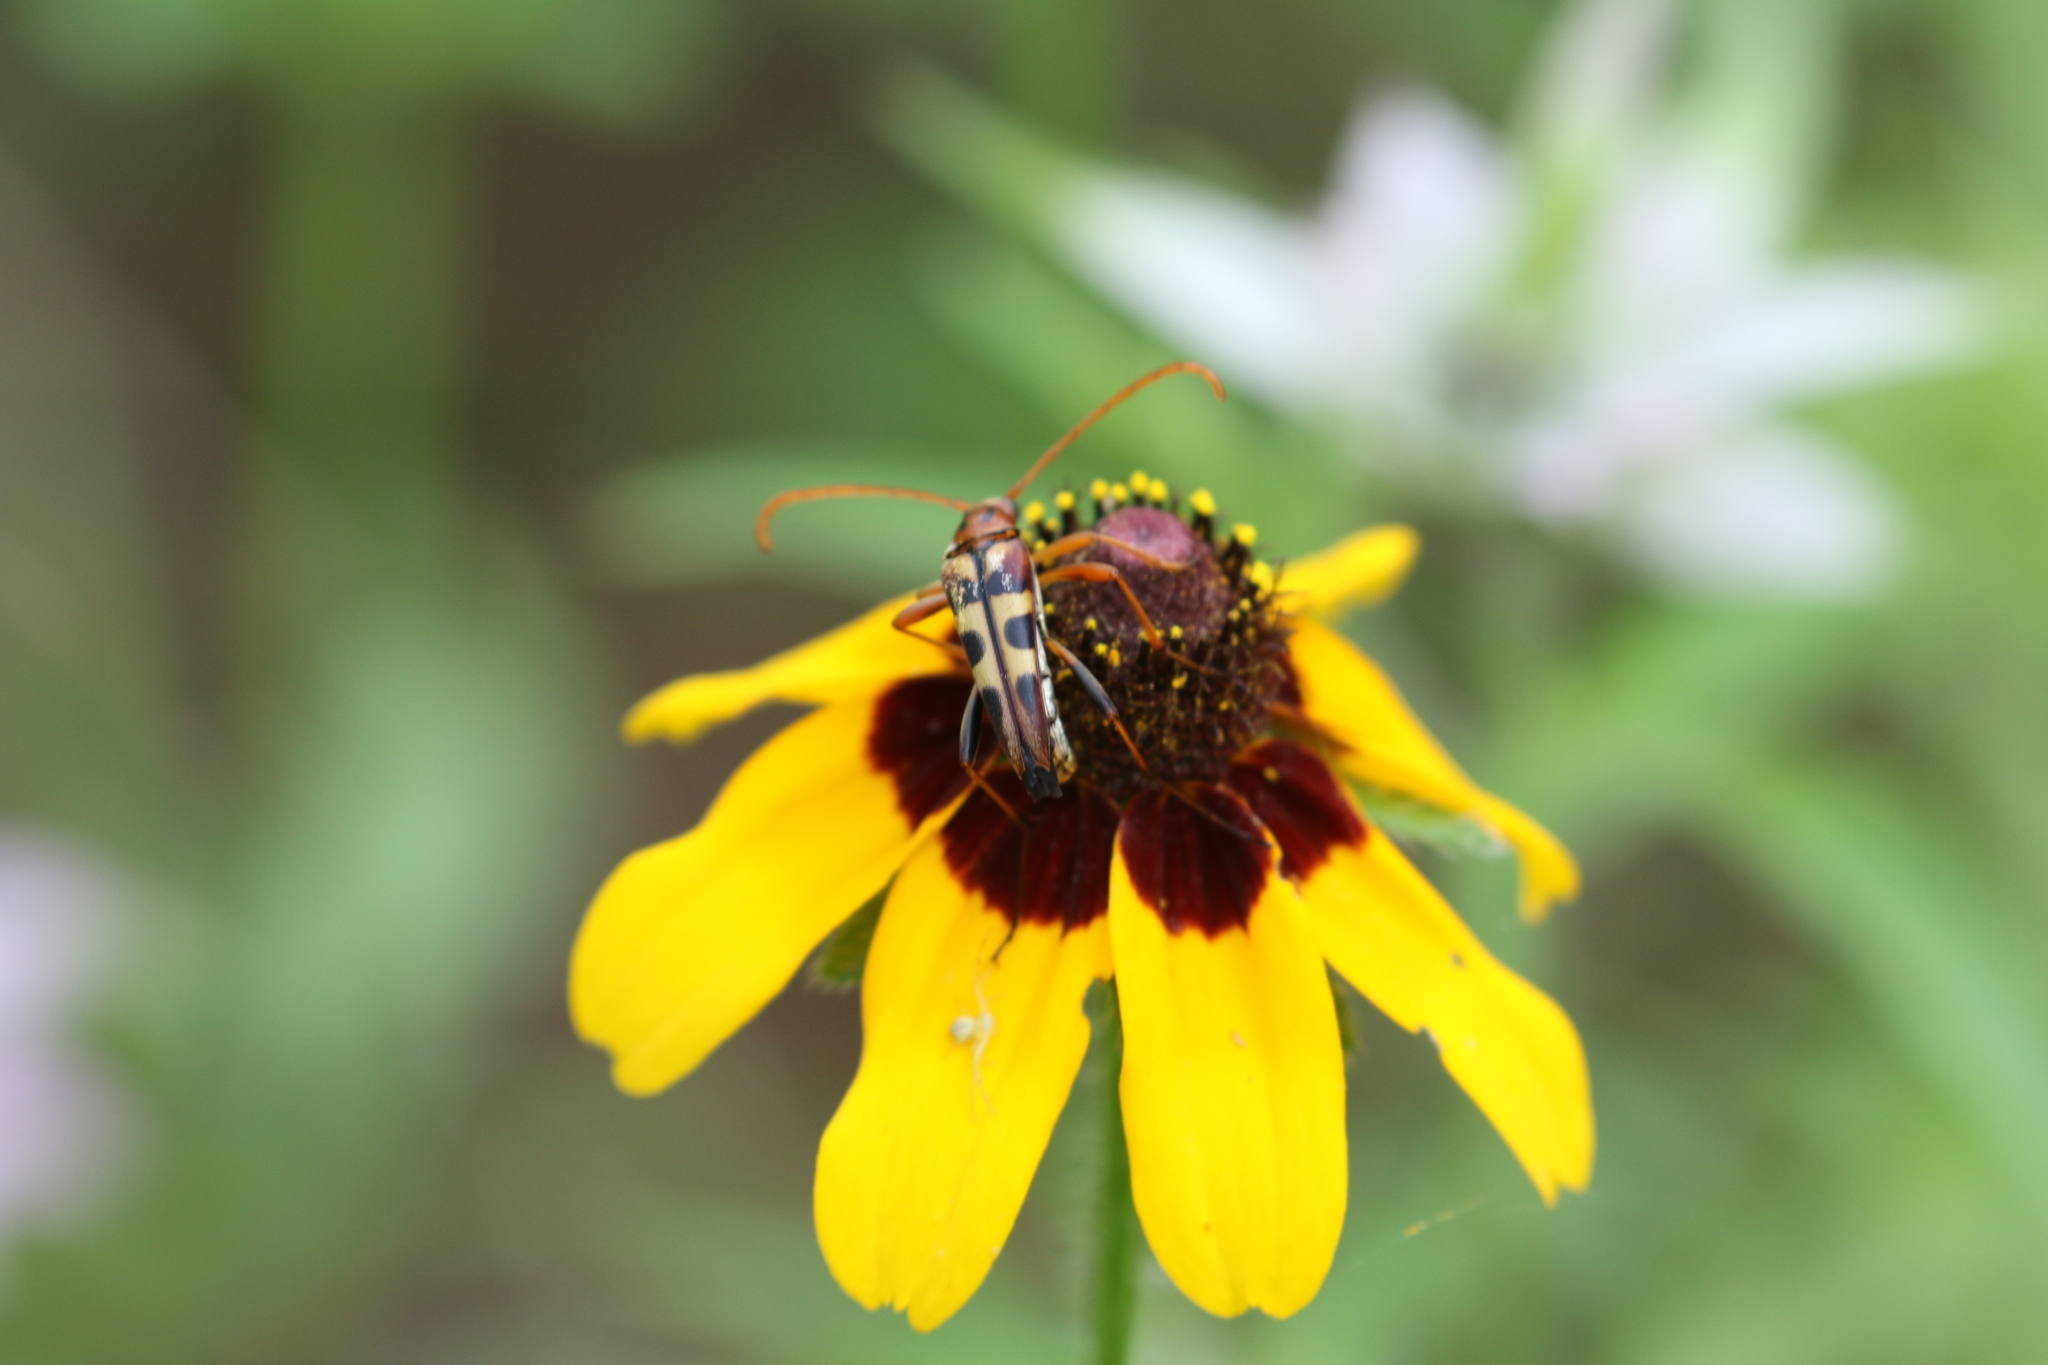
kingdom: Animalia
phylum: Arthropoda
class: Insecta
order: Coleoptera
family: Cerambycidae
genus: Strangalia
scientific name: Strangalia sexnotata
